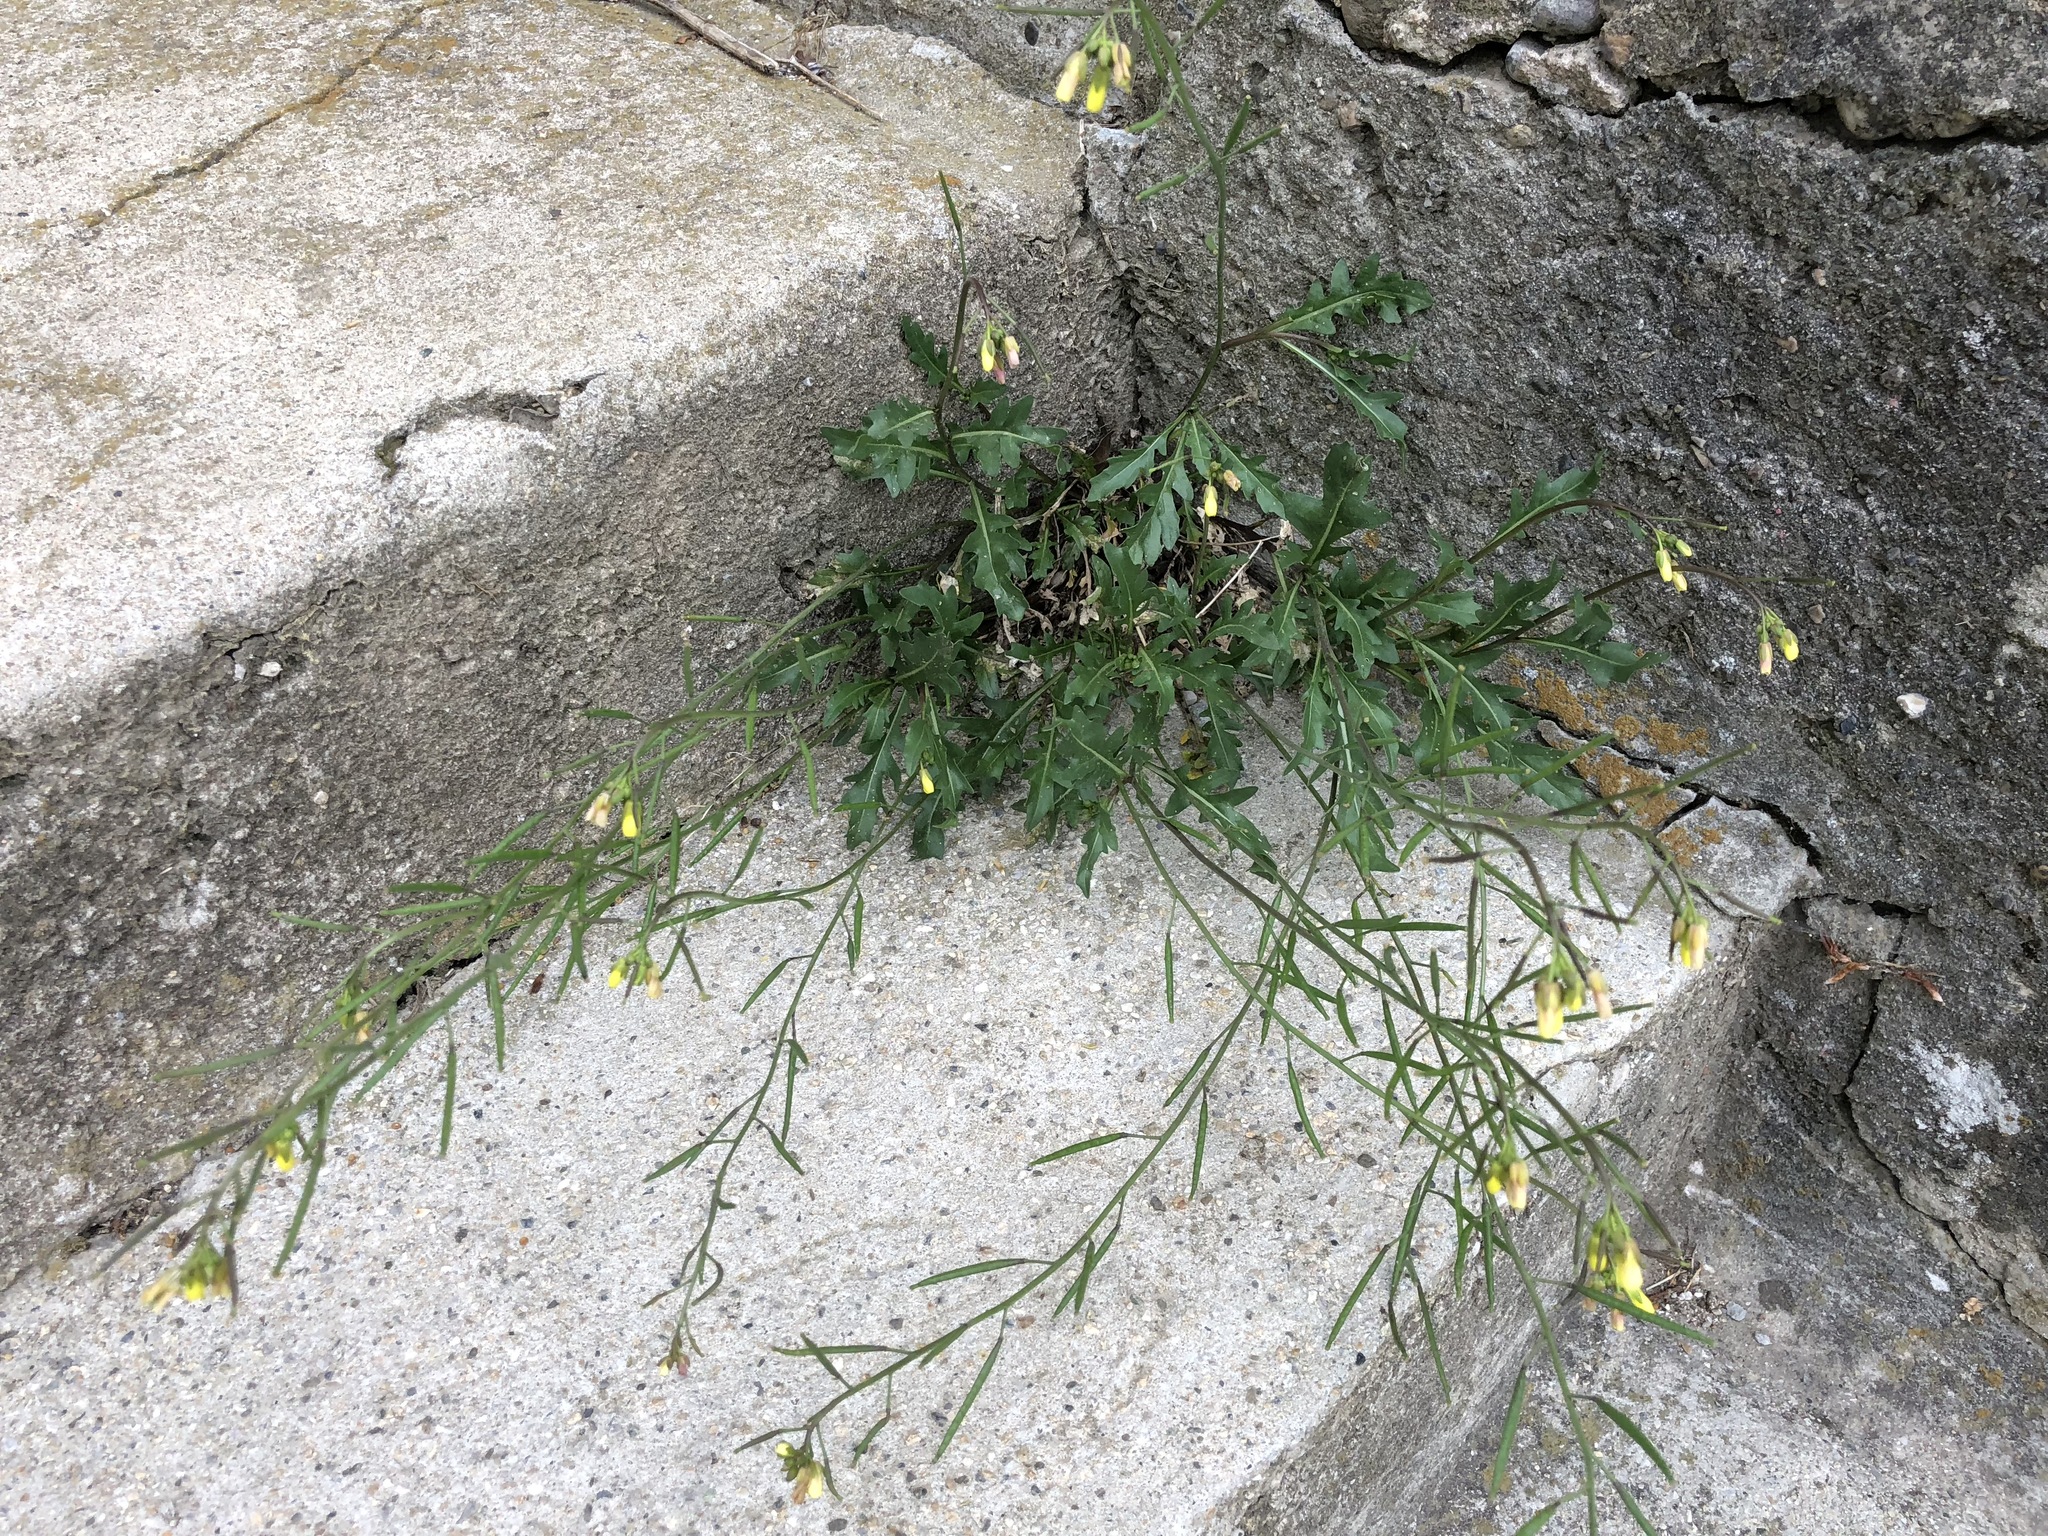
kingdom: Plantae
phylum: Tracheophyta
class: Magnoliopsida
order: Brassicales
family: Brassicaceae
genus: Diplotaxis
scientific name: Diplotaxis tenuifolia
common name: Perennial wall-rocket
